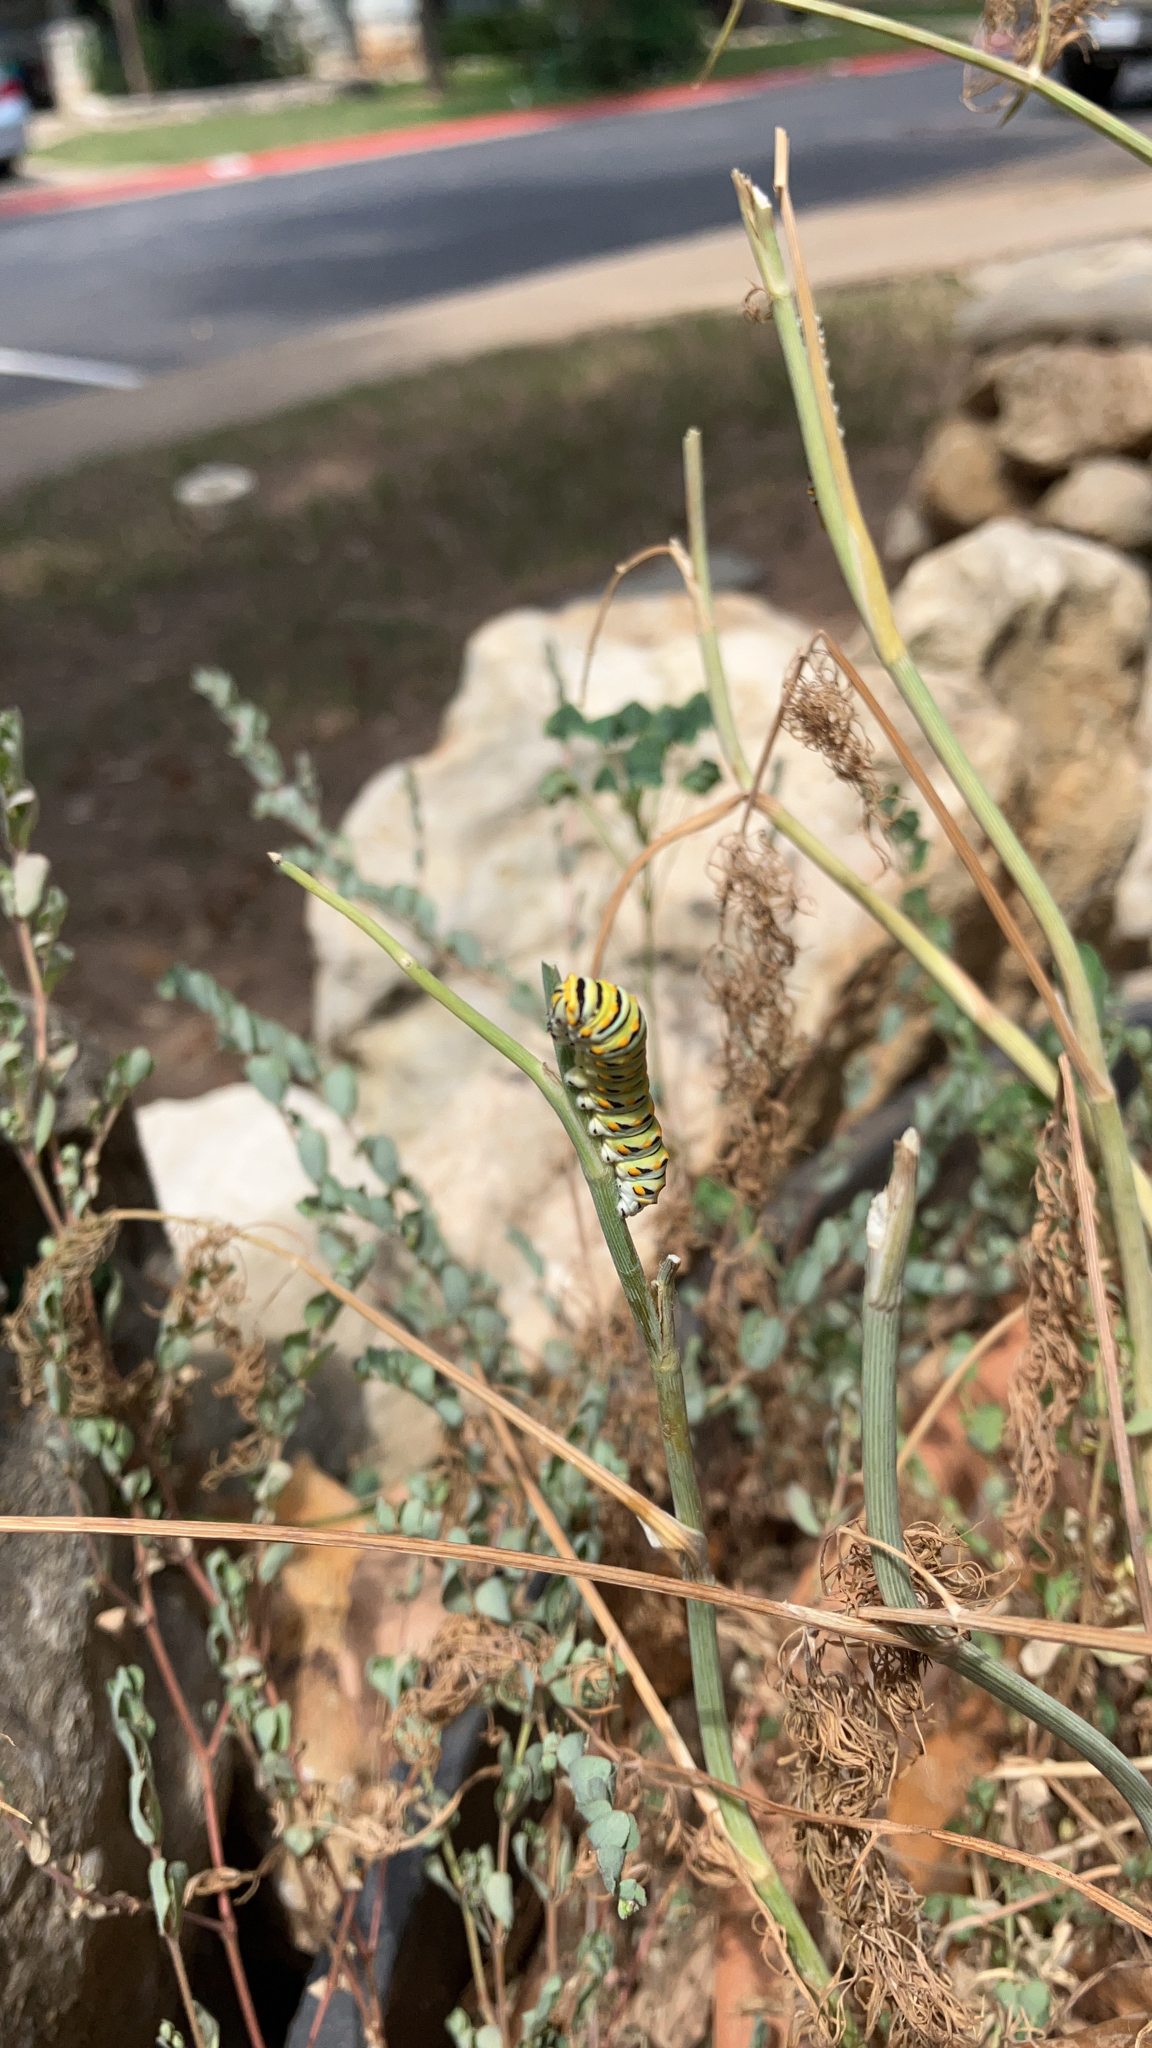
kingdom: Animalia
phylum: Arthropoda
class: Insecta
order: Lepidoptera
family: Papilionidae
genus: Papilio
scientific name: Papilio polyxenes
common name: Black swallowtail
